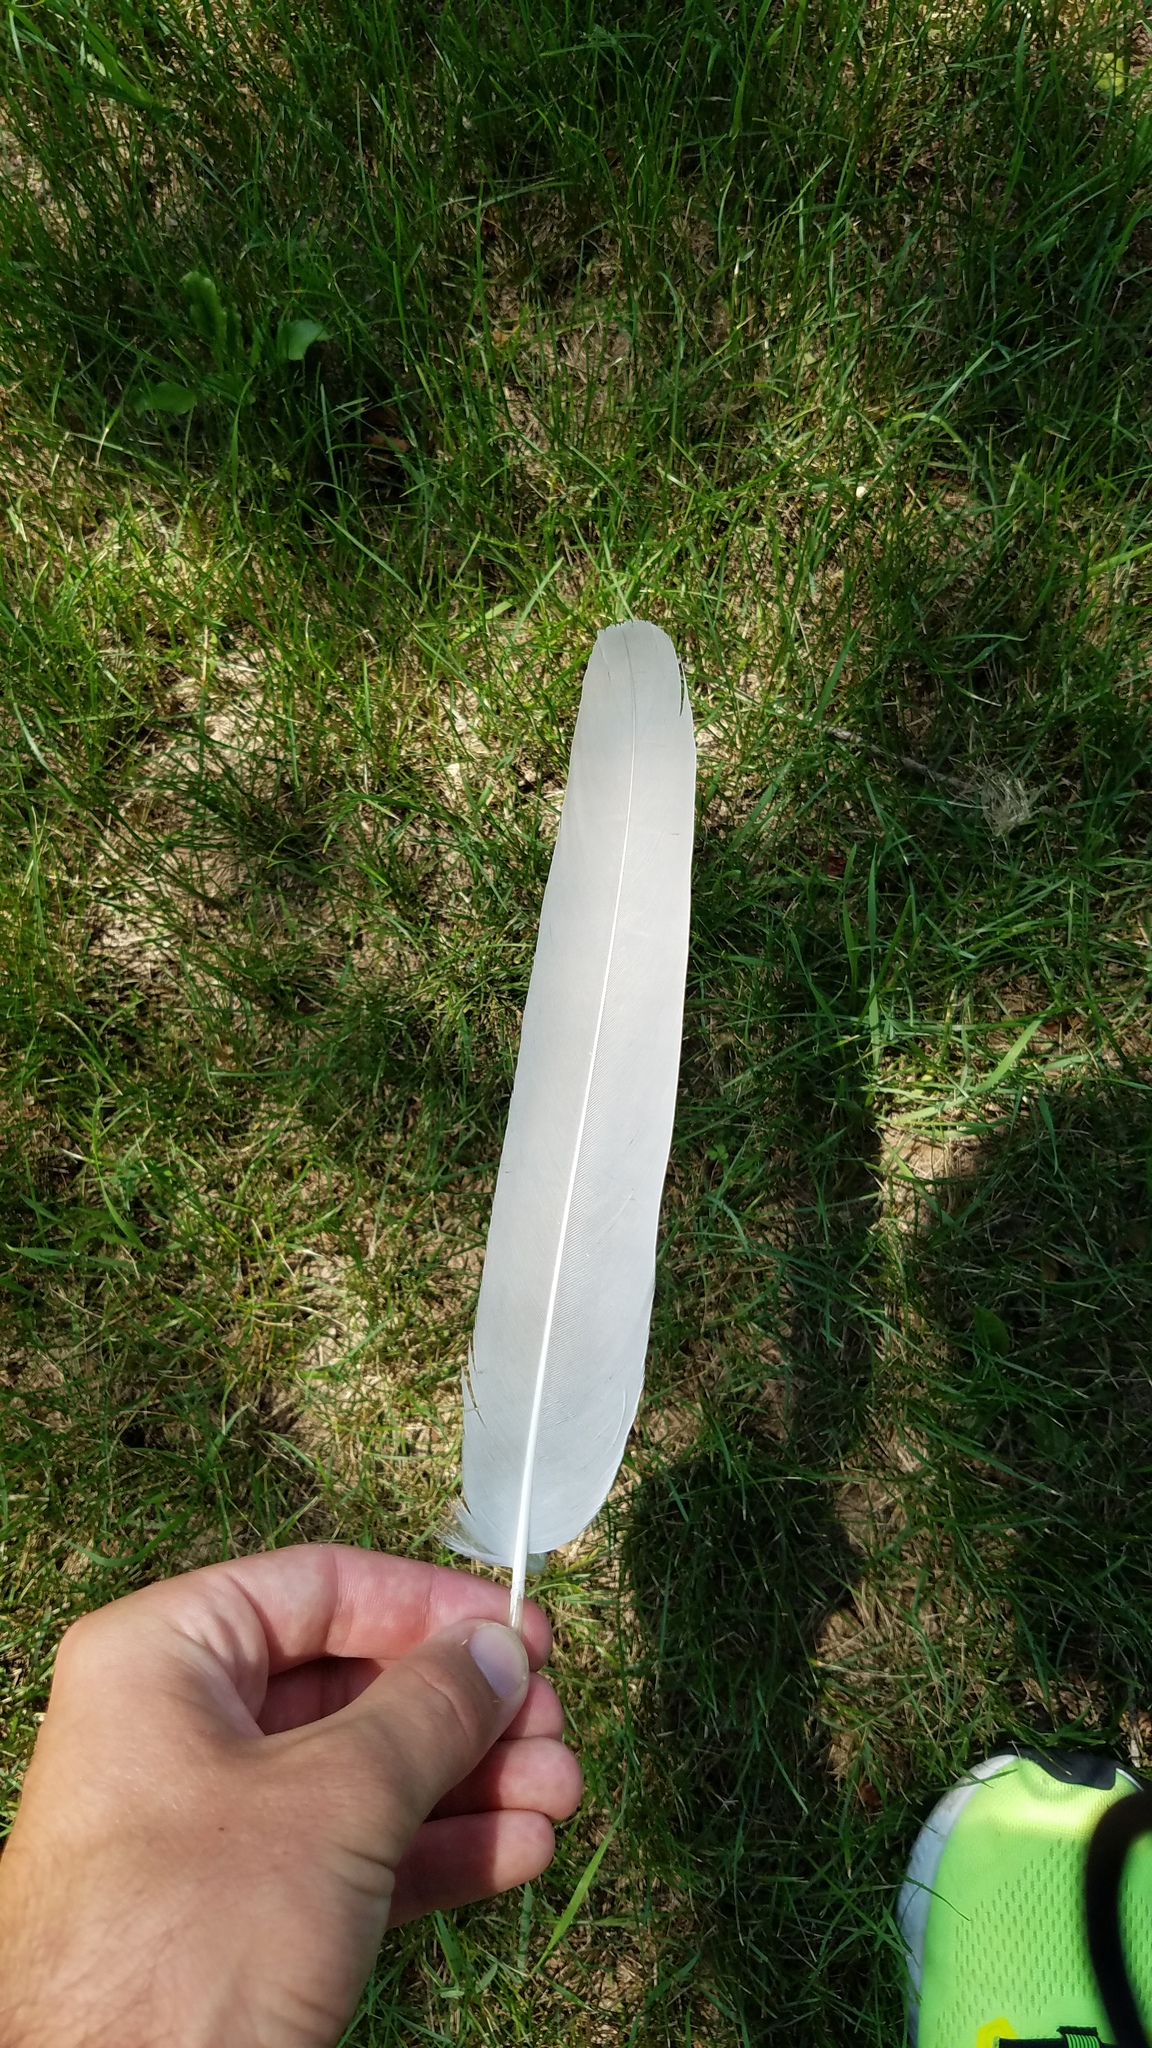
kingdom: Animalia
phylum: Chordata
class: Aves
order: Gruiformes
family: Gruidae
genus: Grus
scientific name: Grus canadensis
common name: Sandhill crane
